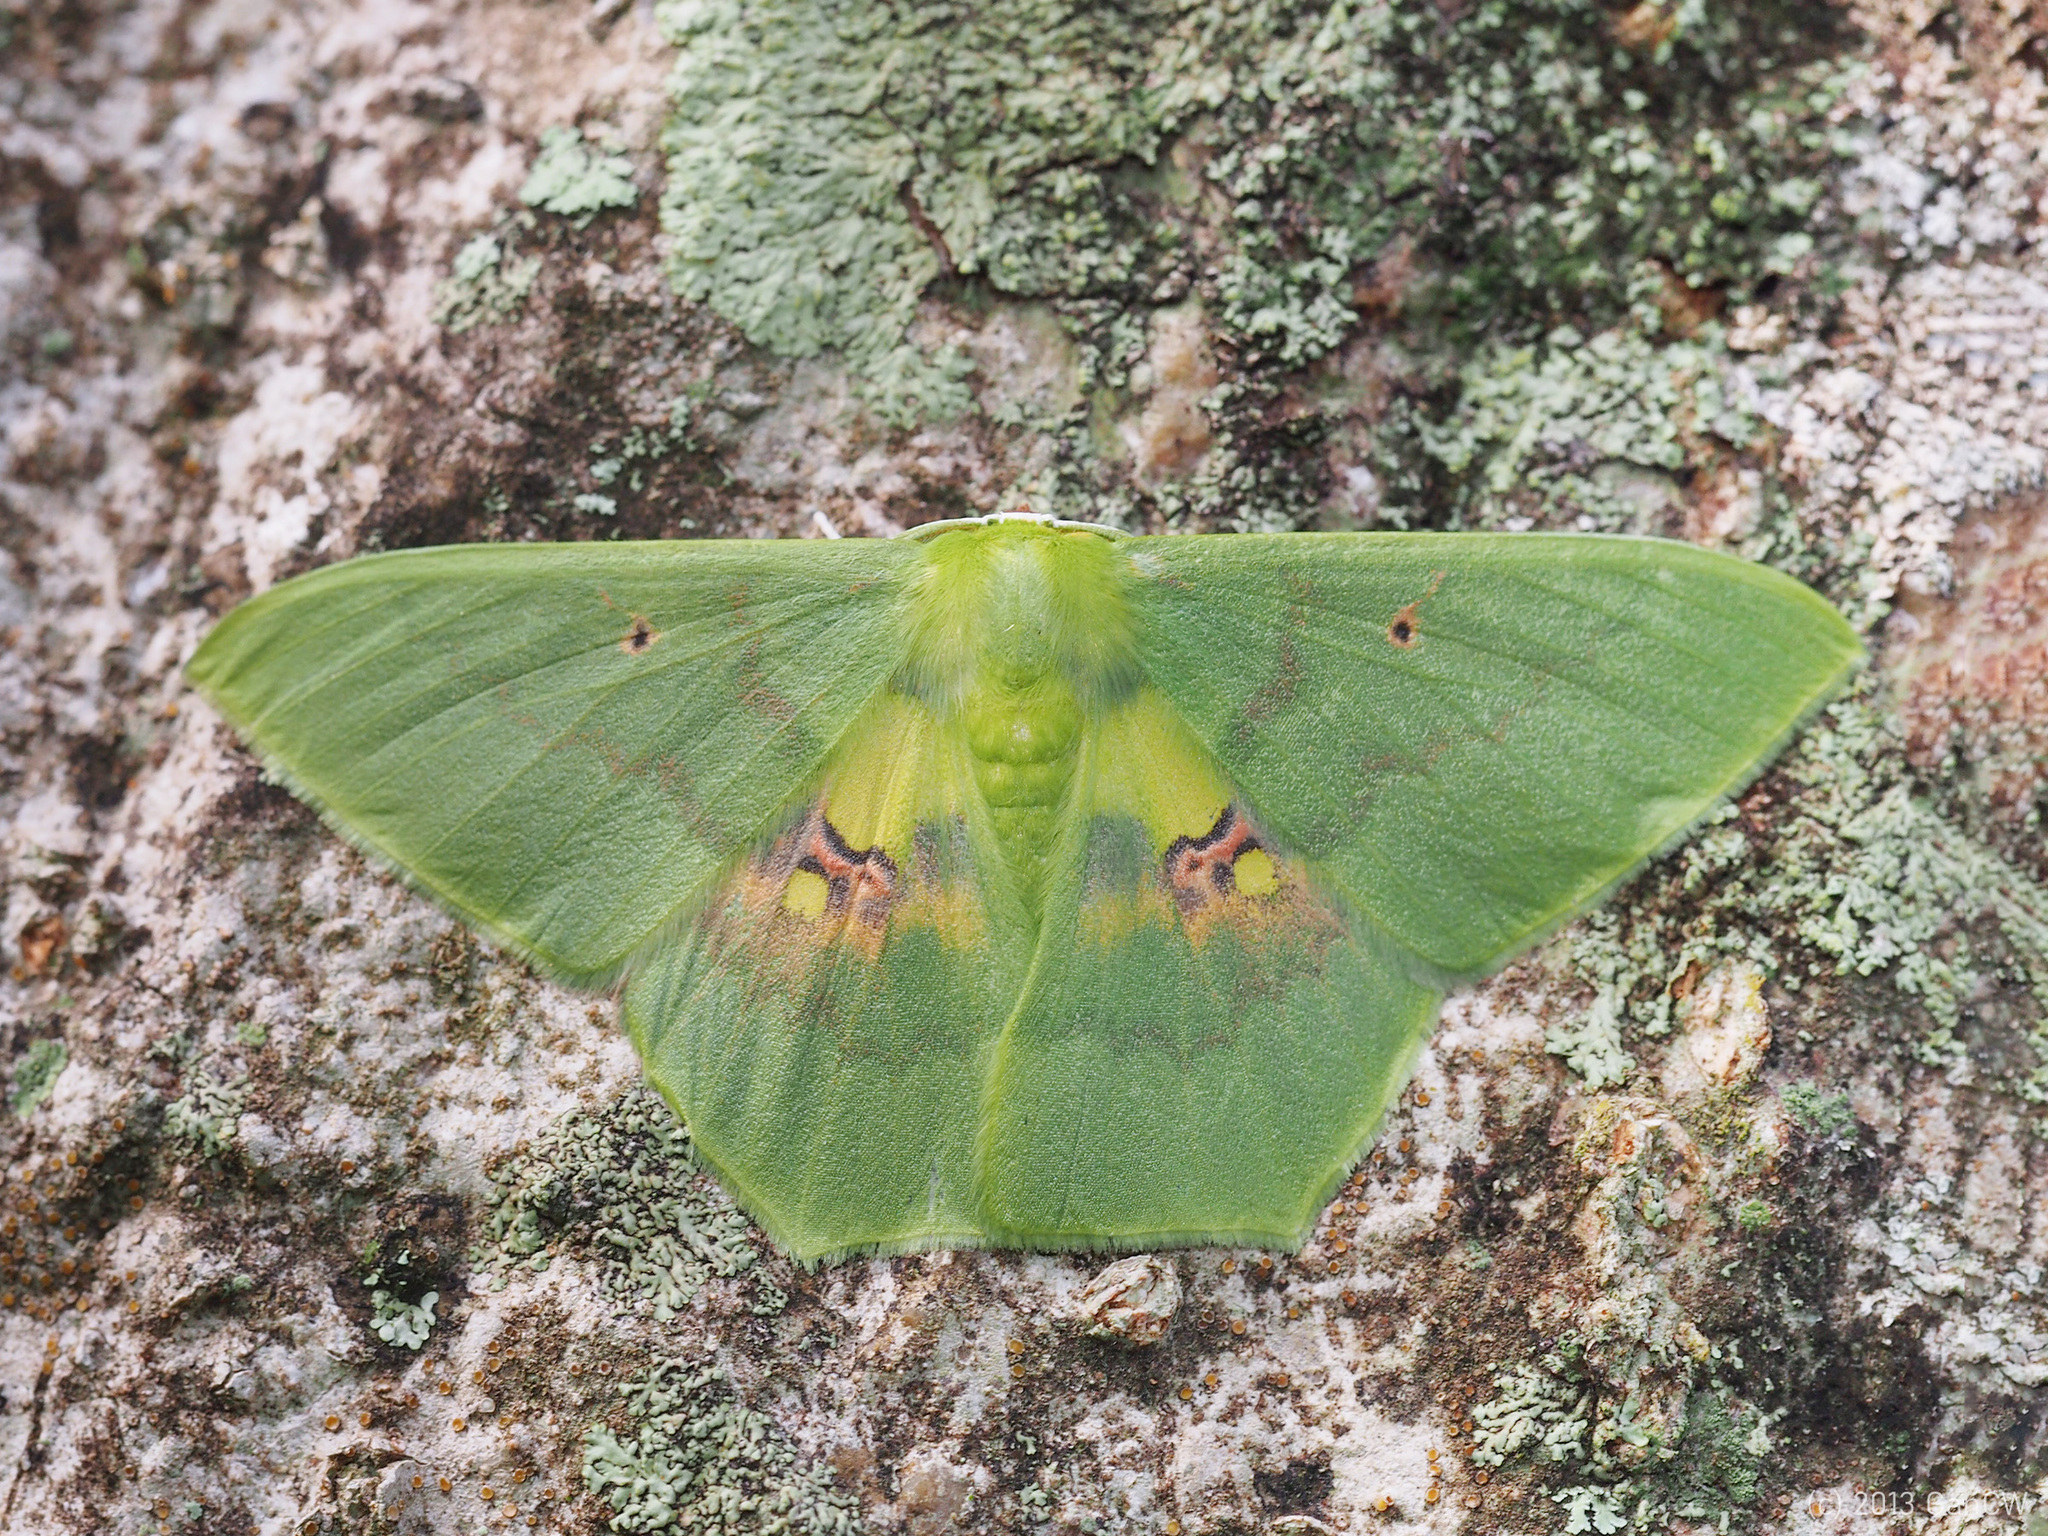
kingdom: Animalia
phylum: Arthropoda
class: Insecta
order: Lepidoptera
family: Geometridae
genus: Aporandria
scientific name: Aporandria specularia
